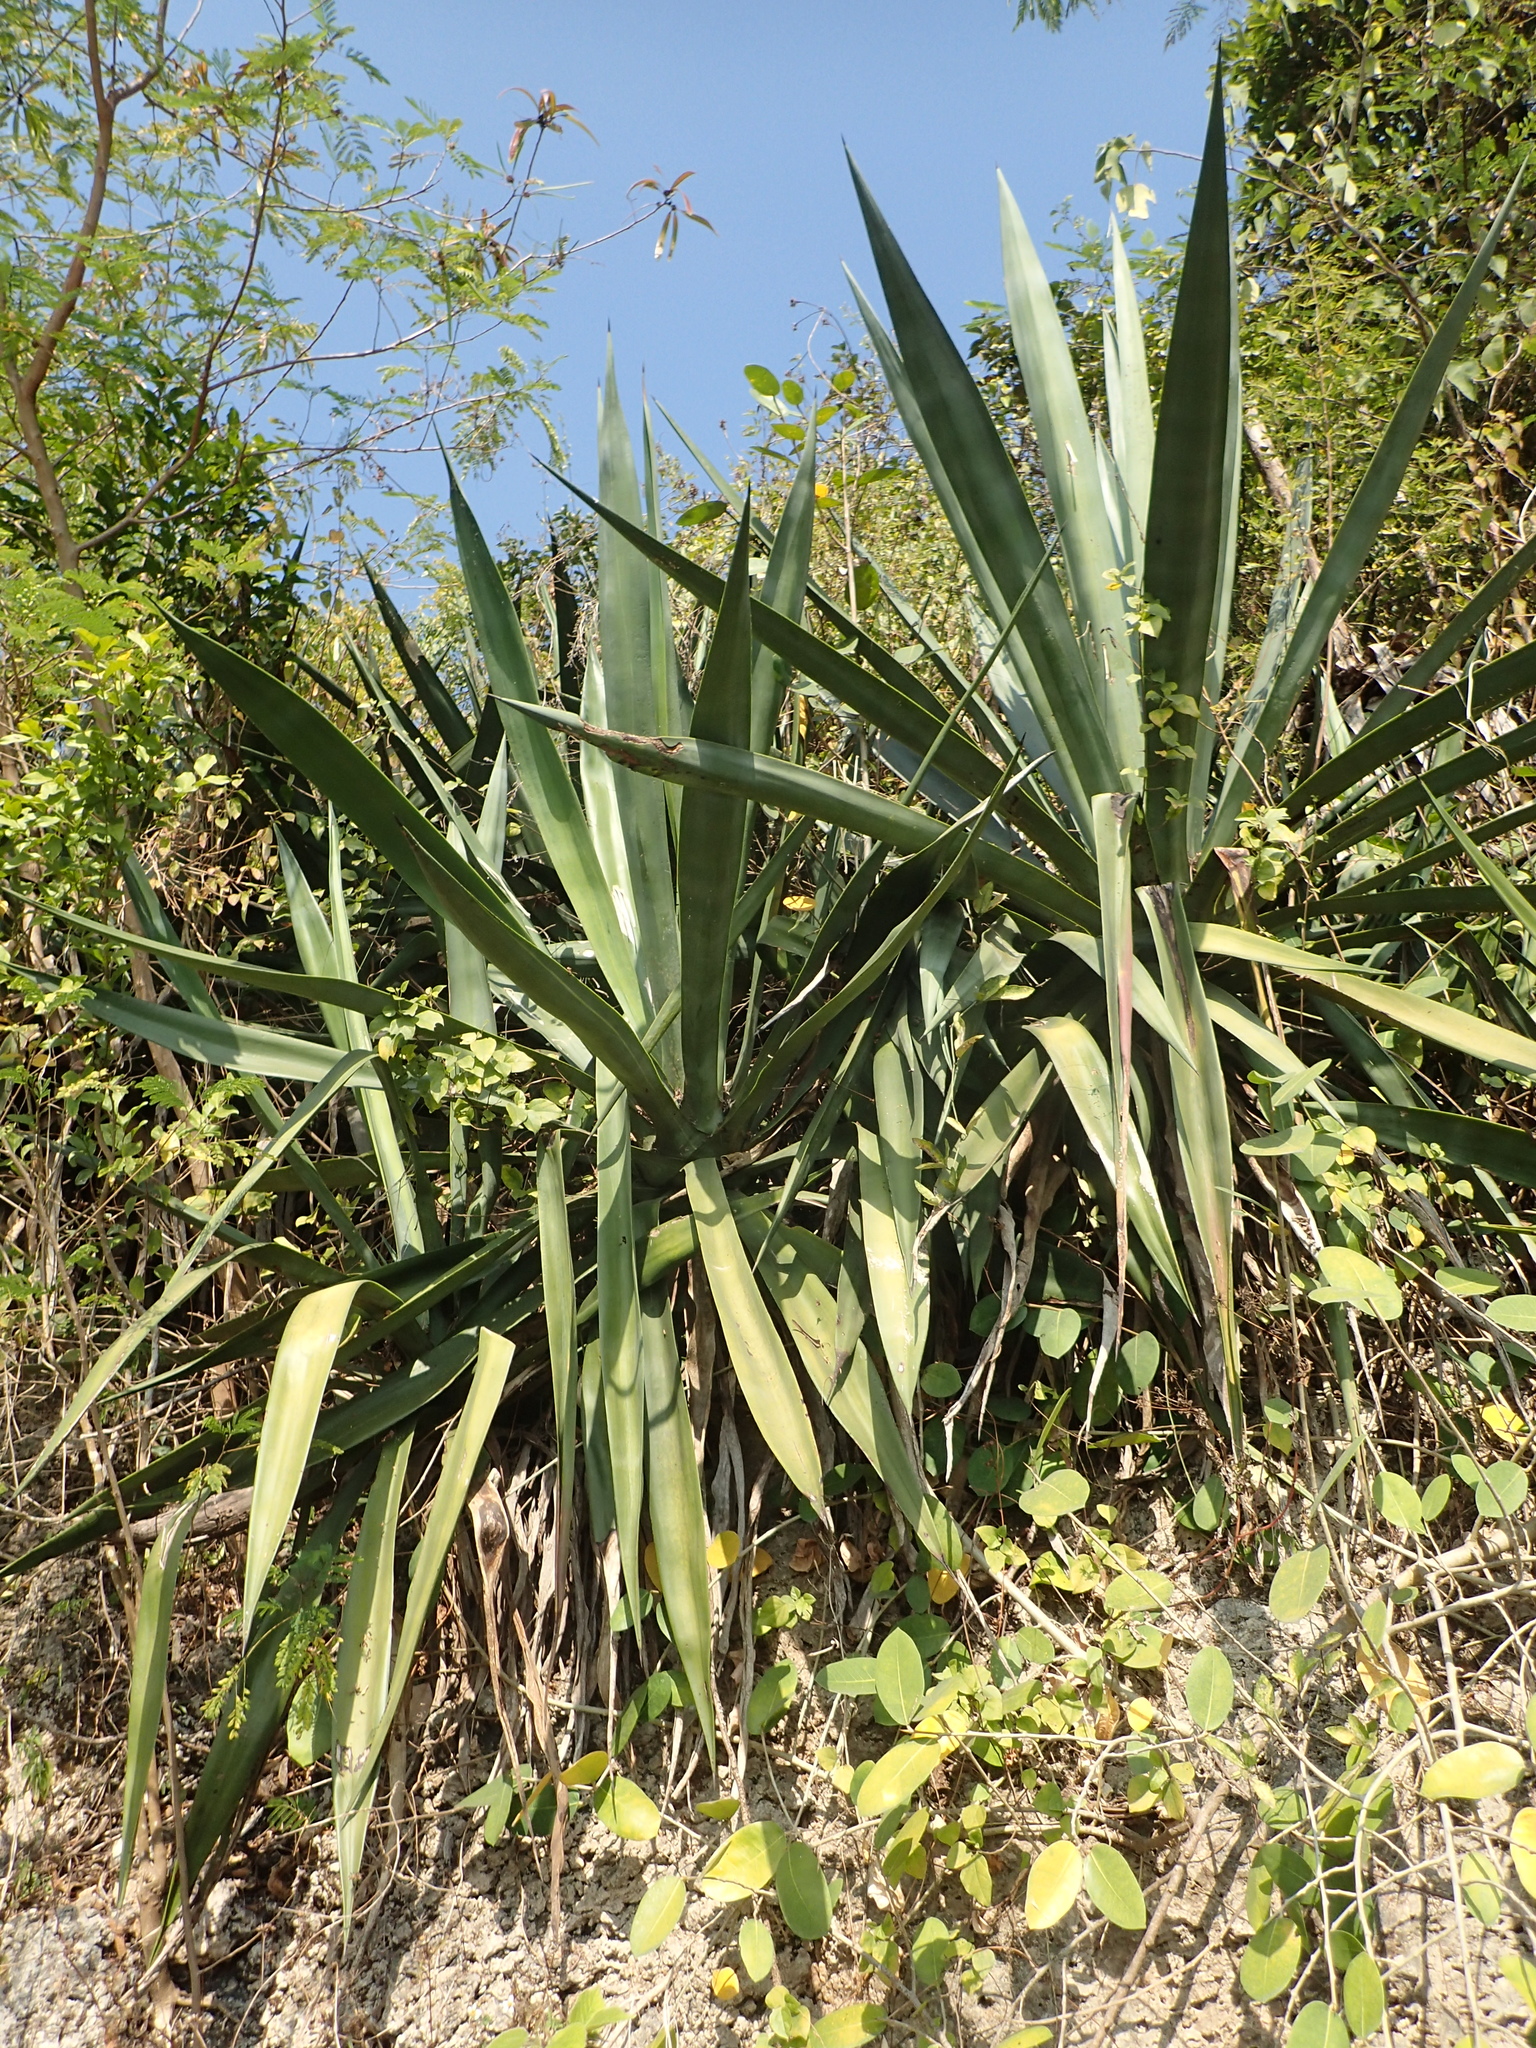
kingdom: Plantae
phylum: Tracheophyta
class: Liliopsida
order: Asparagales
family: Asparagaceae
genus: Agave
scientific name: Agave sisalana
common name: Sisal hemp
